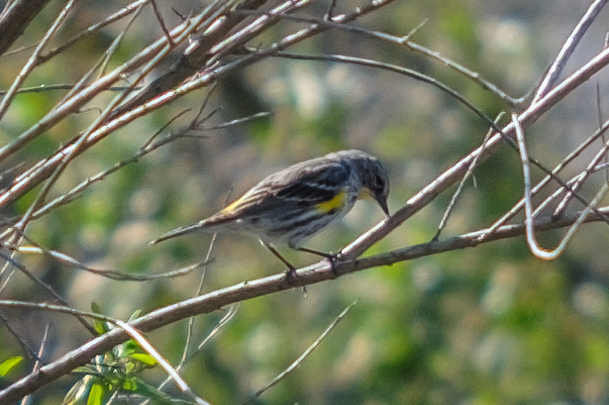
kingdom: Animalia
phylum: Chordata
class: Aves
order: Passeriformes
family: Parulidae
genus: Setophaga
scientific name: Setophaga coronata
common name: Myrtle warbler
